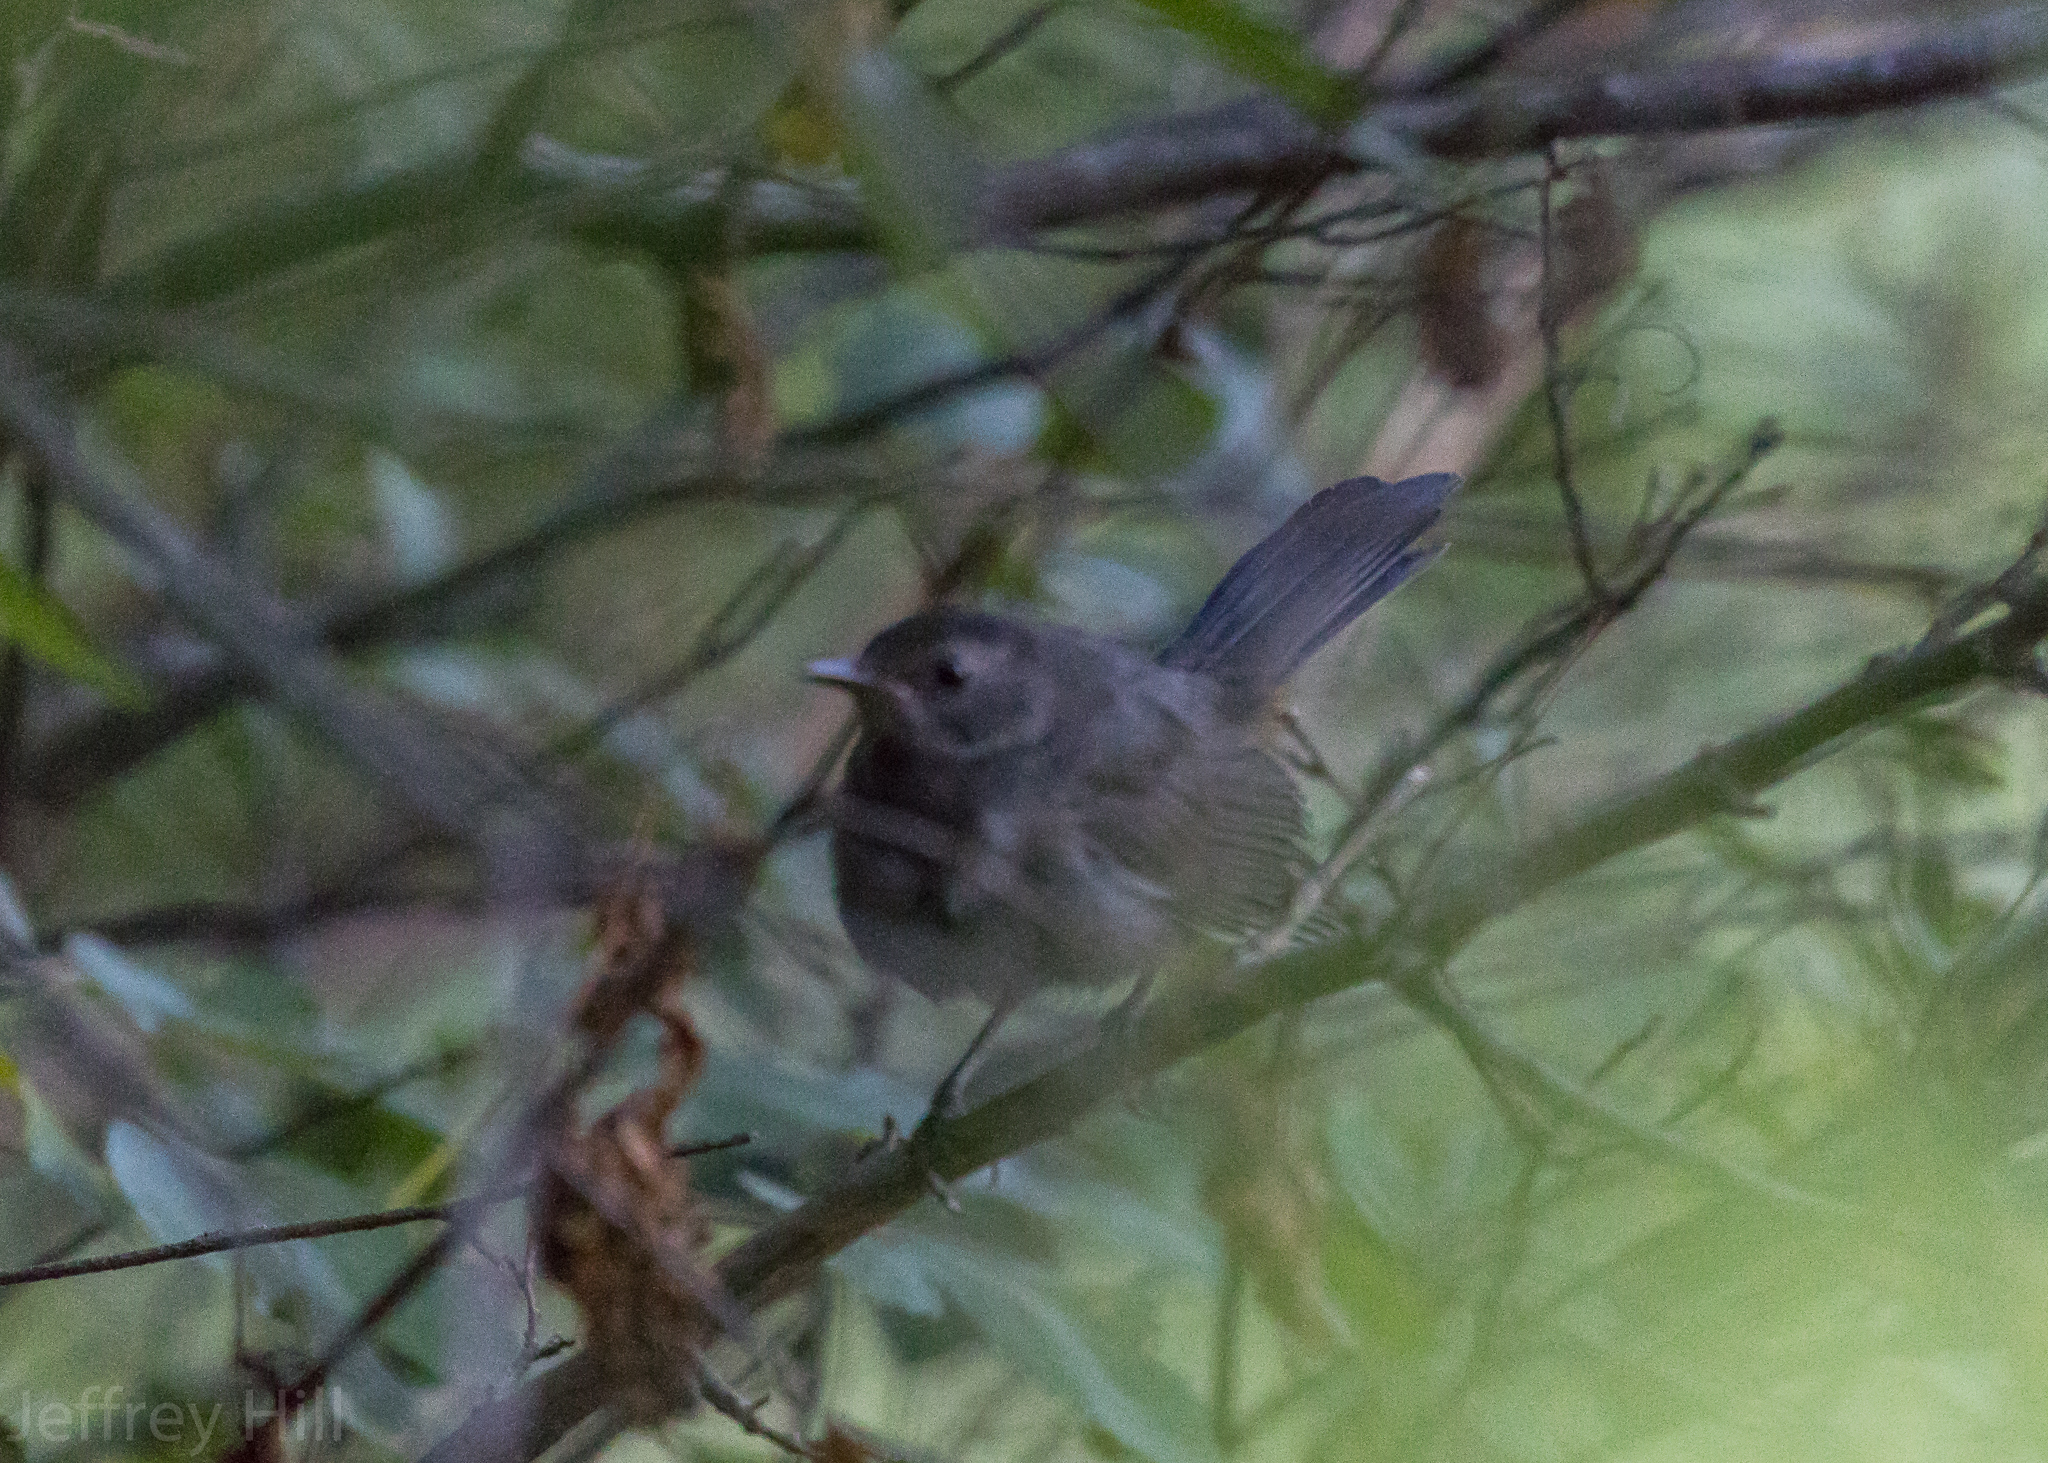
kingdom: Animalia
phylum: Chordata
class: Aves
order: Passeriformes
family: Mimidae
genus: Dumetella
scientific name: Dumetella carolinensis
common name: Gray catbird
